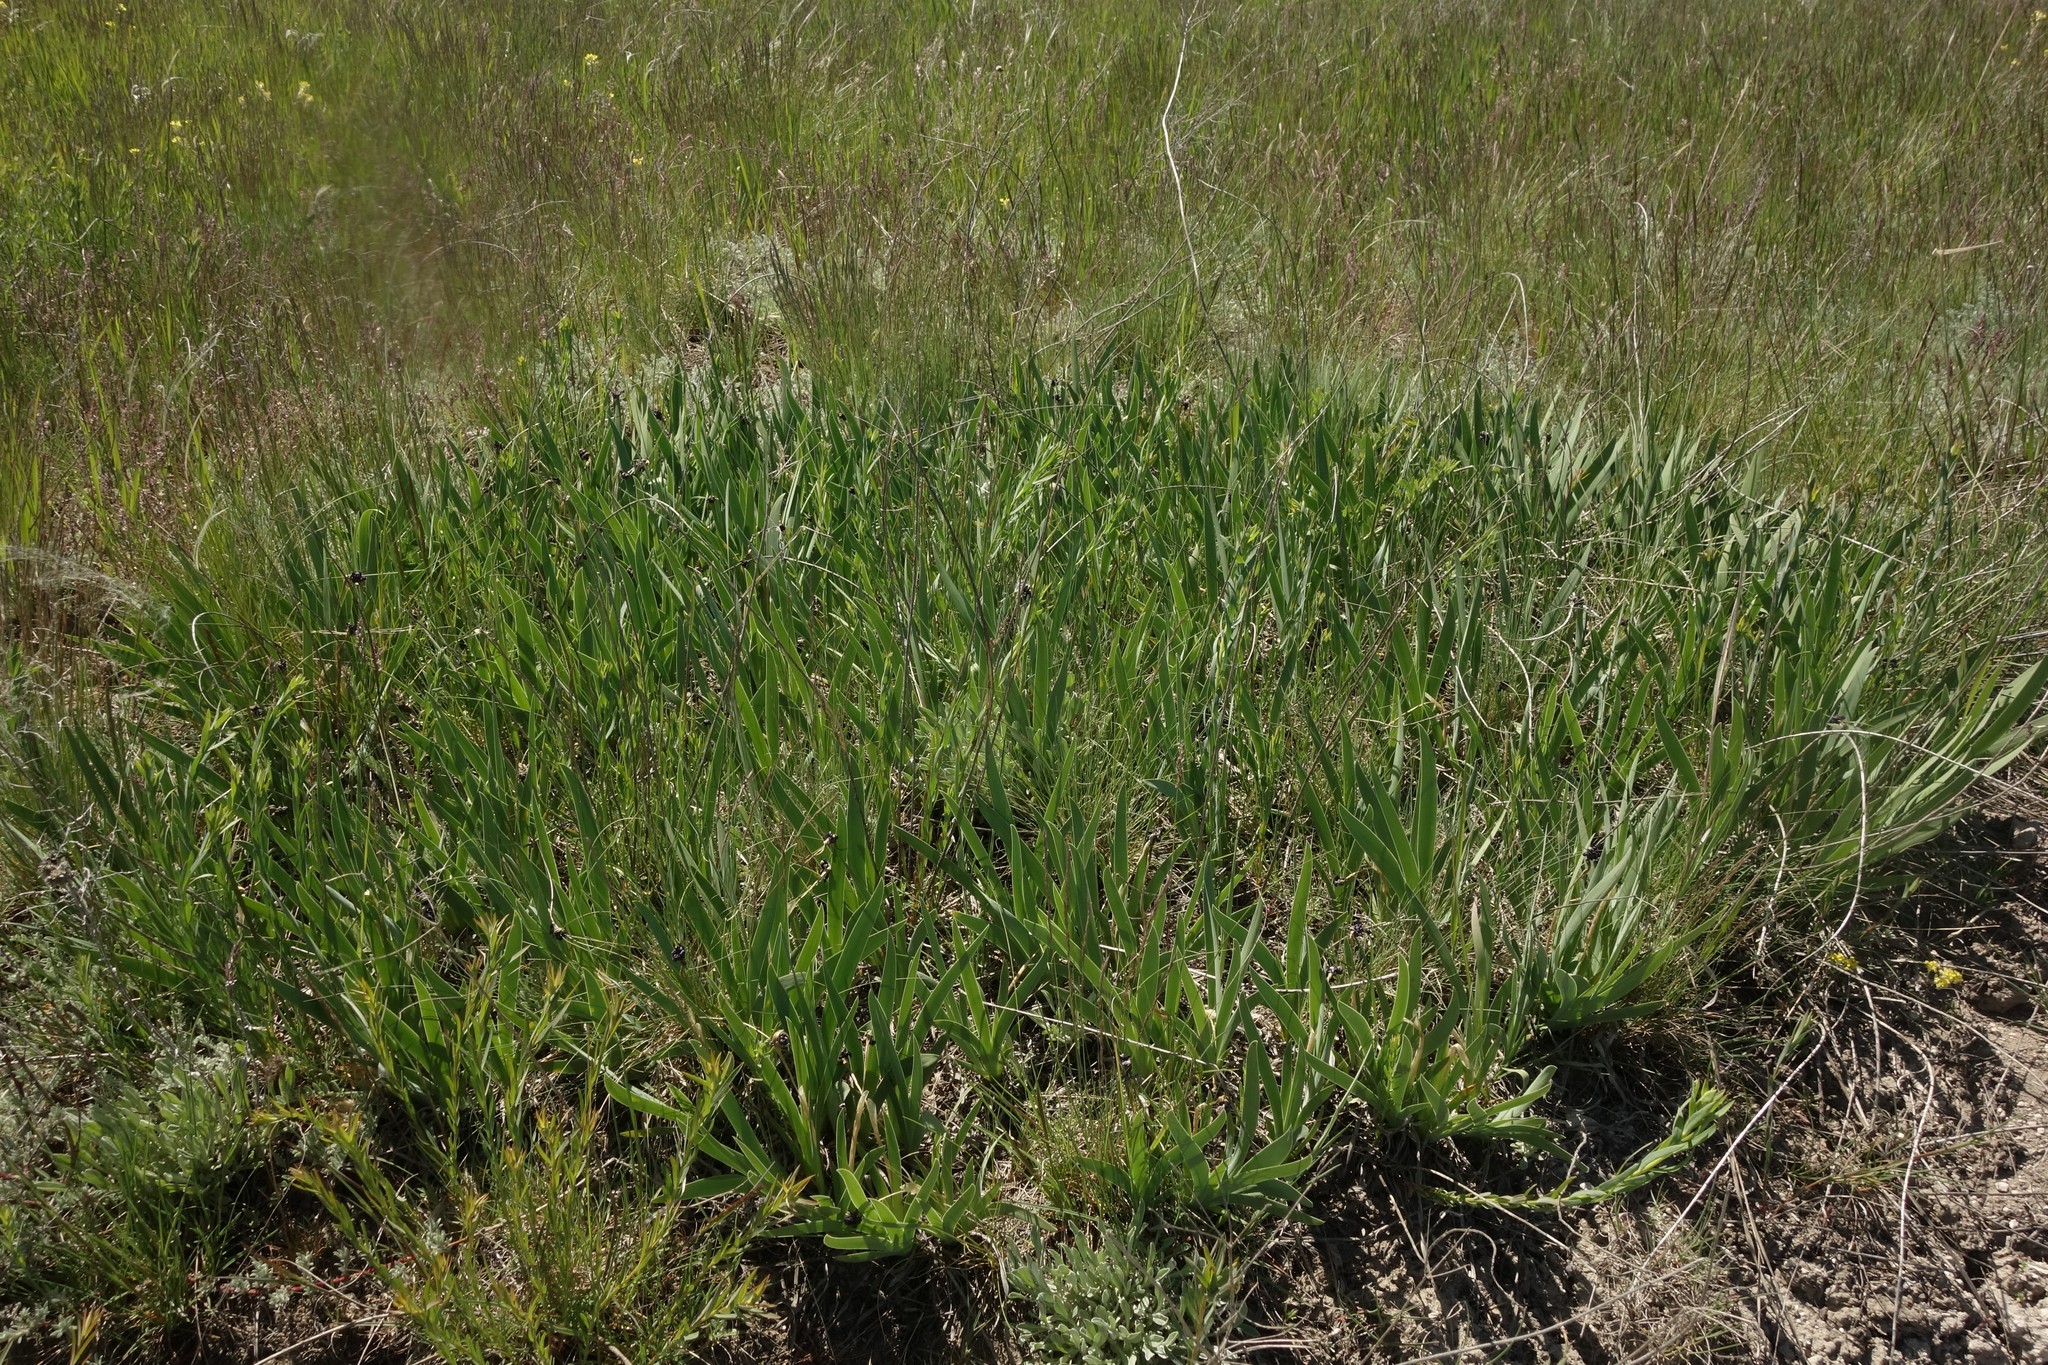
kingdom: Plantae
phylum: Tracheophyta
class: Liliopsida
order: Asparagales
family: Iridaceae
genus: Iris
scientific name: Iris pumila
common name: Dwarf iris
